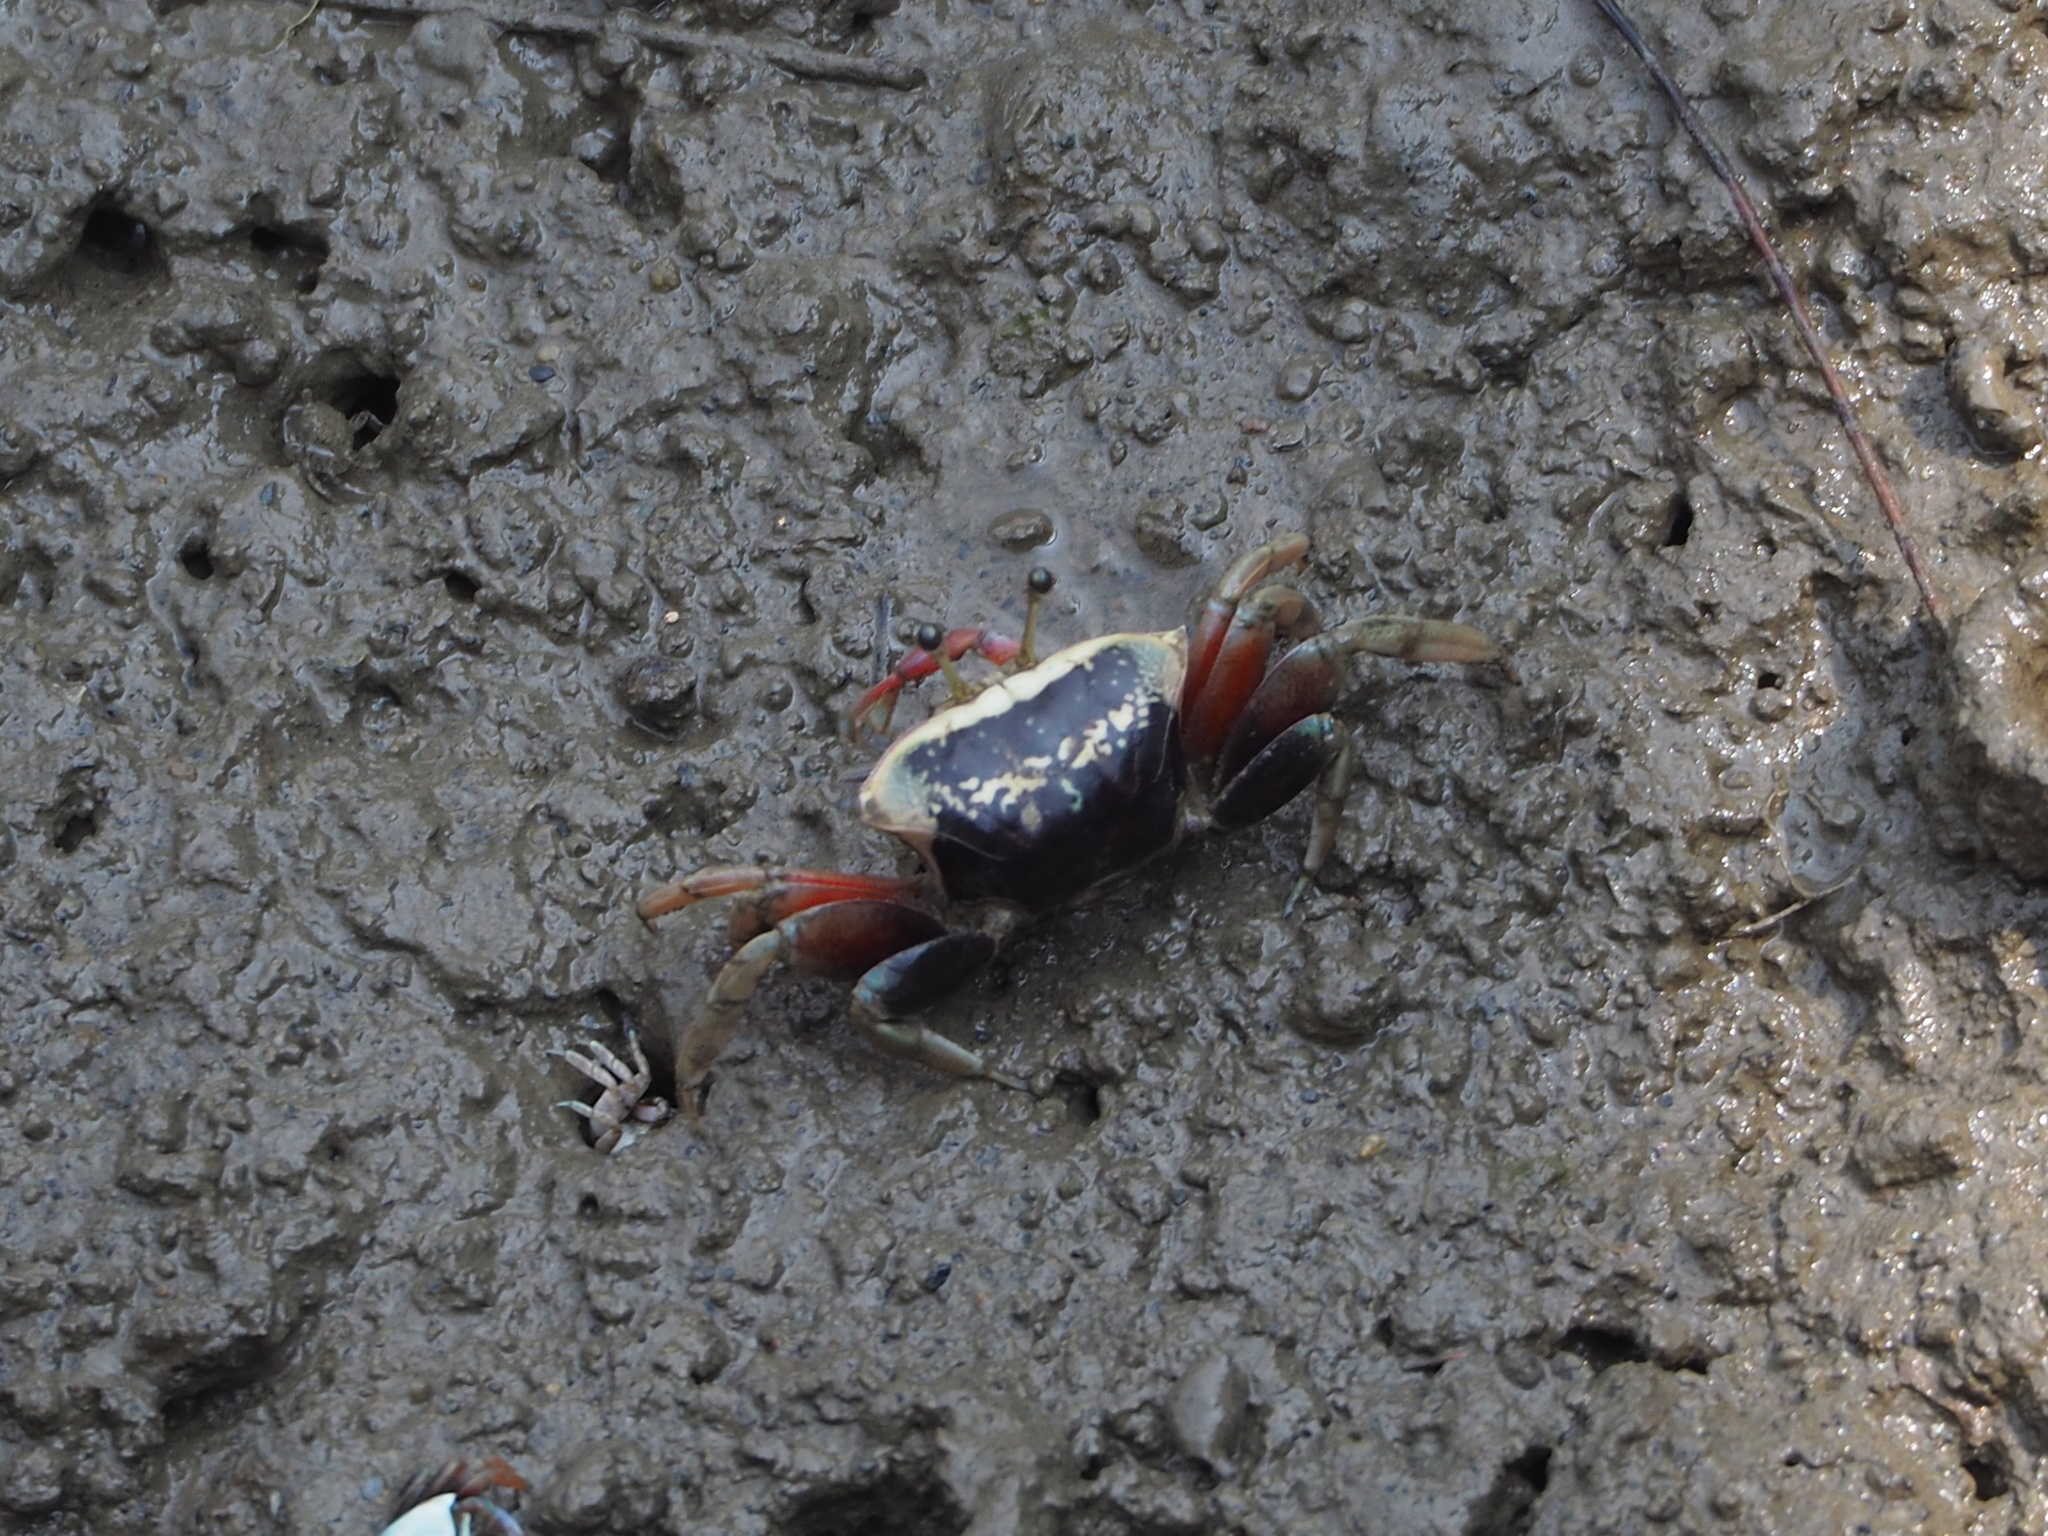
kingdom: Animalia
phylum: Arthropoda
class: Malacostraca
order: Decapoda
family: Ocypodidae
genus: Tubuca
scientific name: Tubuca arcuata
